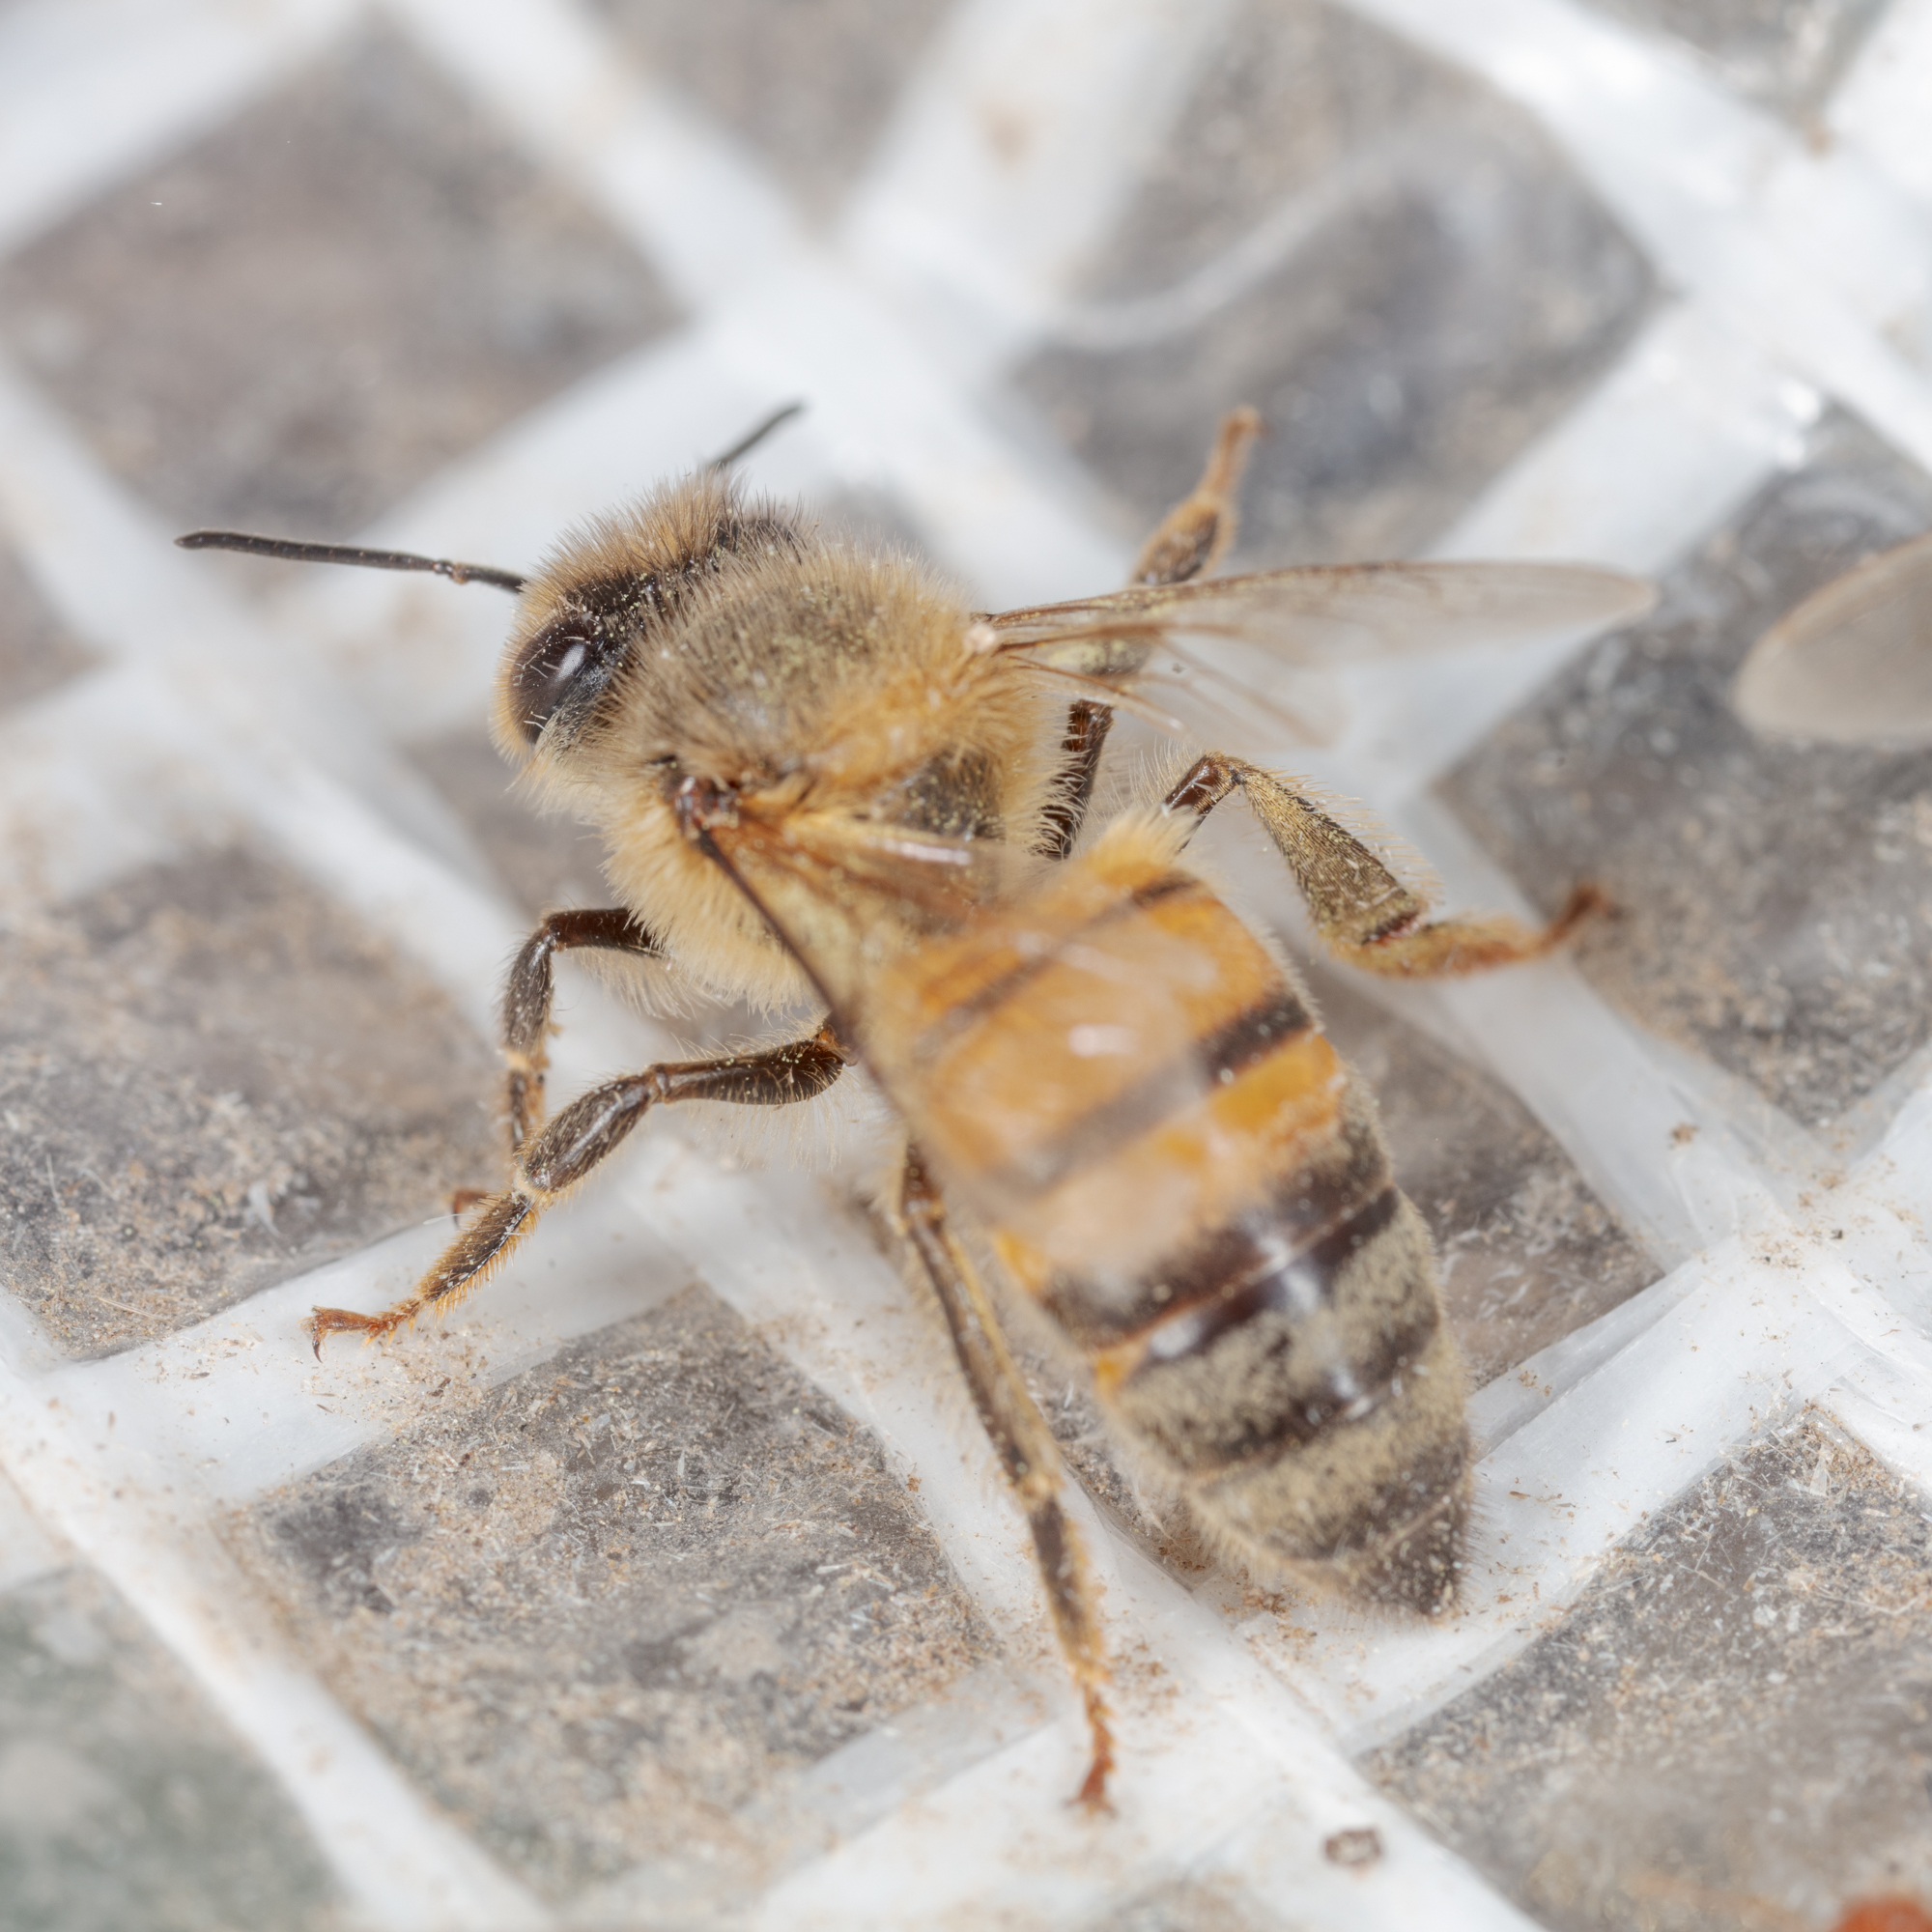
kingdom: Animalia
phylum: Arthropoda
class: Insecta
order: Hymenoptera
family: Apidae
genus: Apis
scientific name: Apis mellifera
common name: Honey bee
